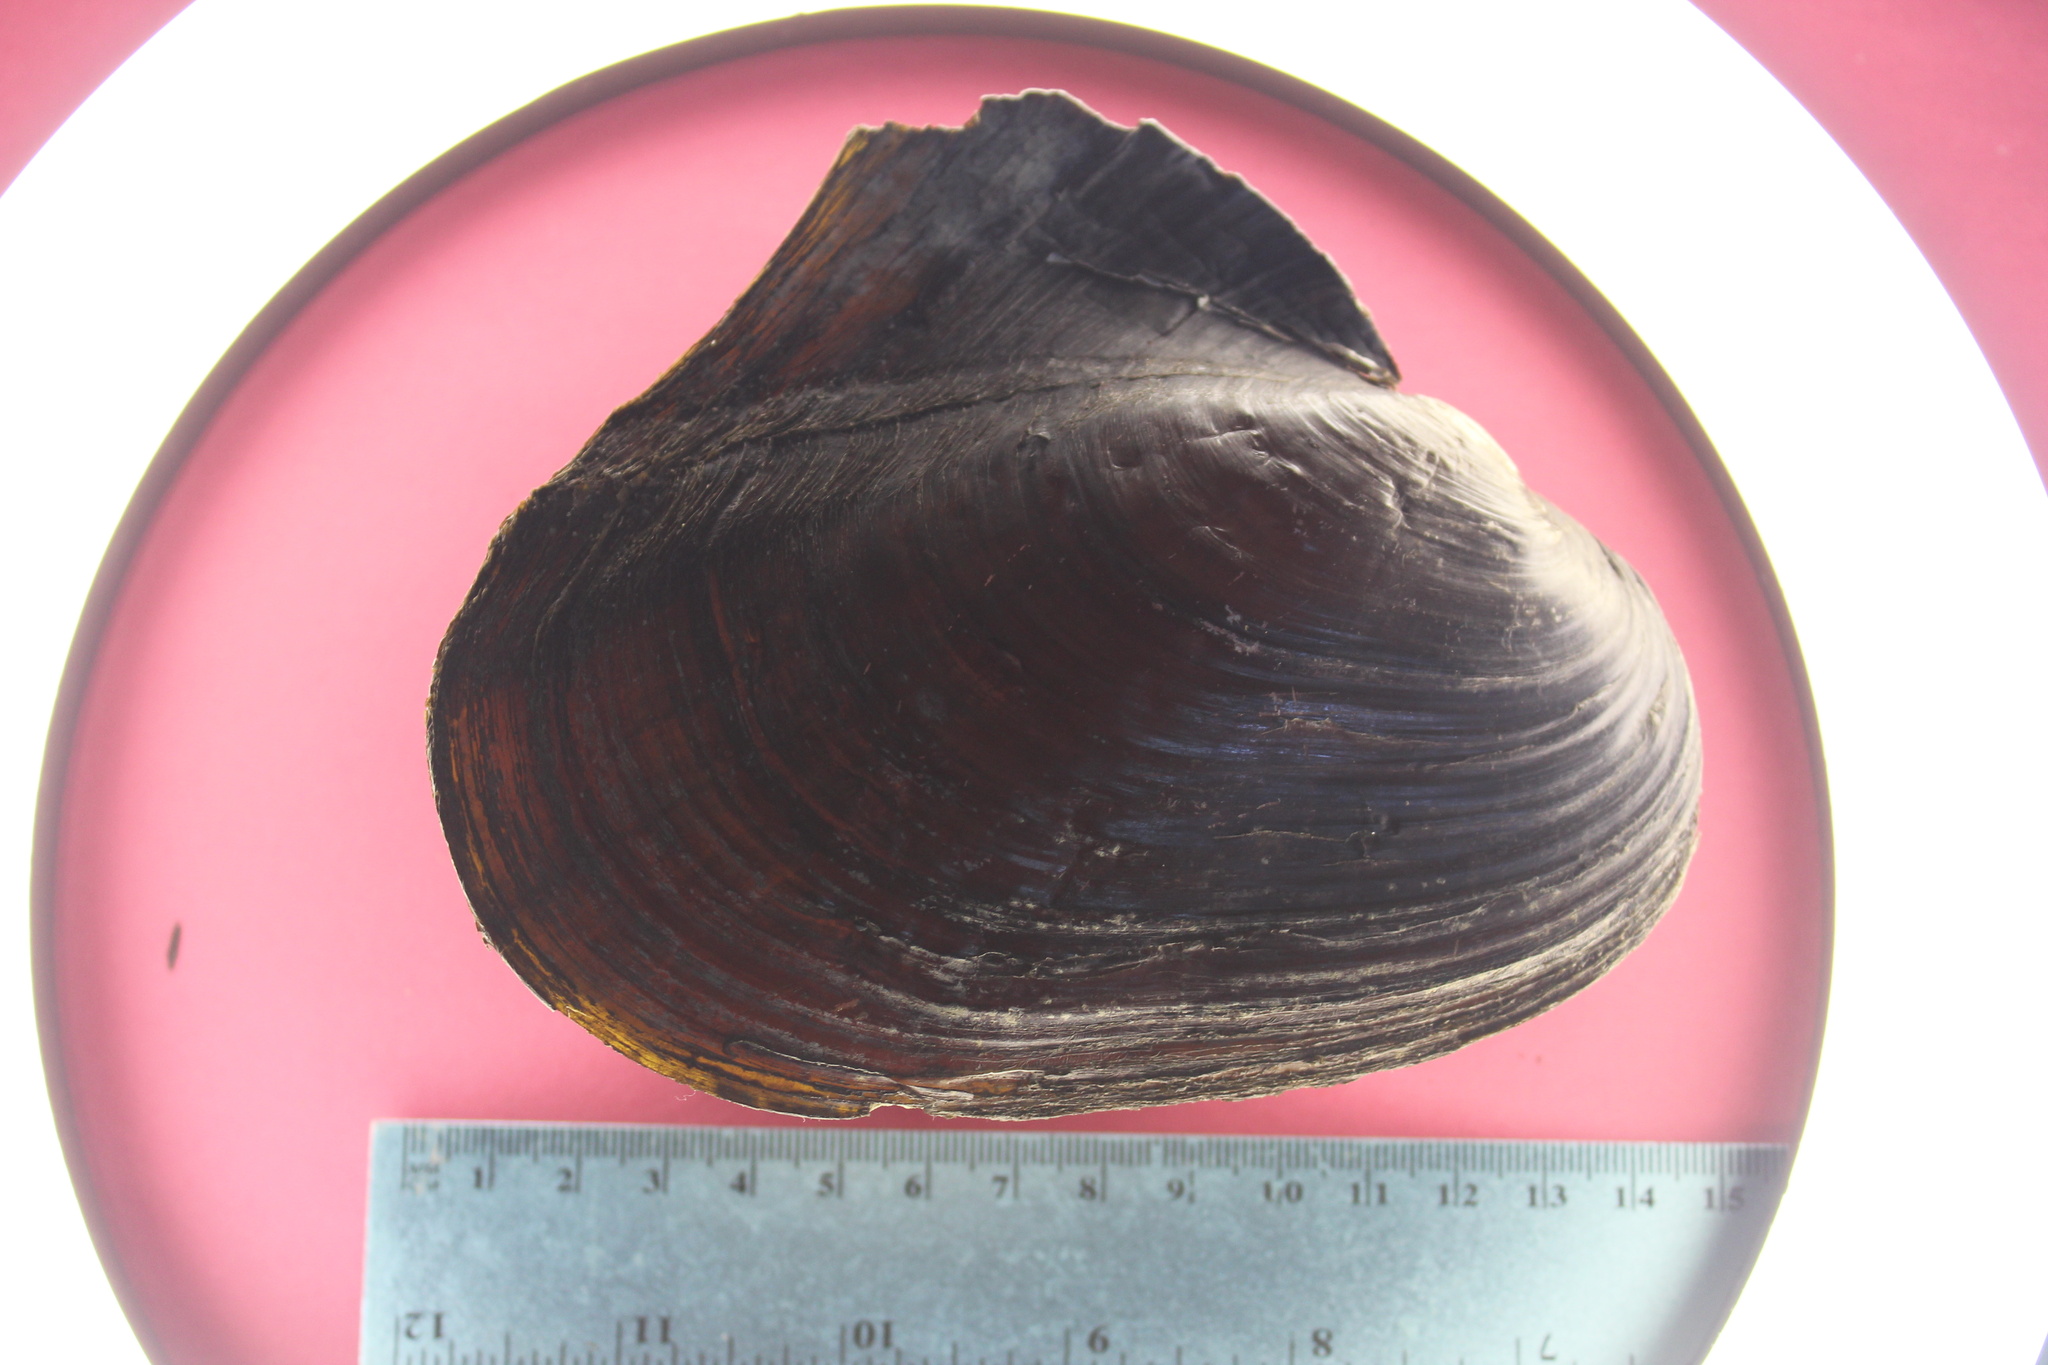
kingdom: Animalia
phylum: Mollusca
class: Bivalvia
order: Unionida
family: Unionidae
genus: Potamilus
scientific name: Potamilus alatus
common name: Pink heelsplitter
